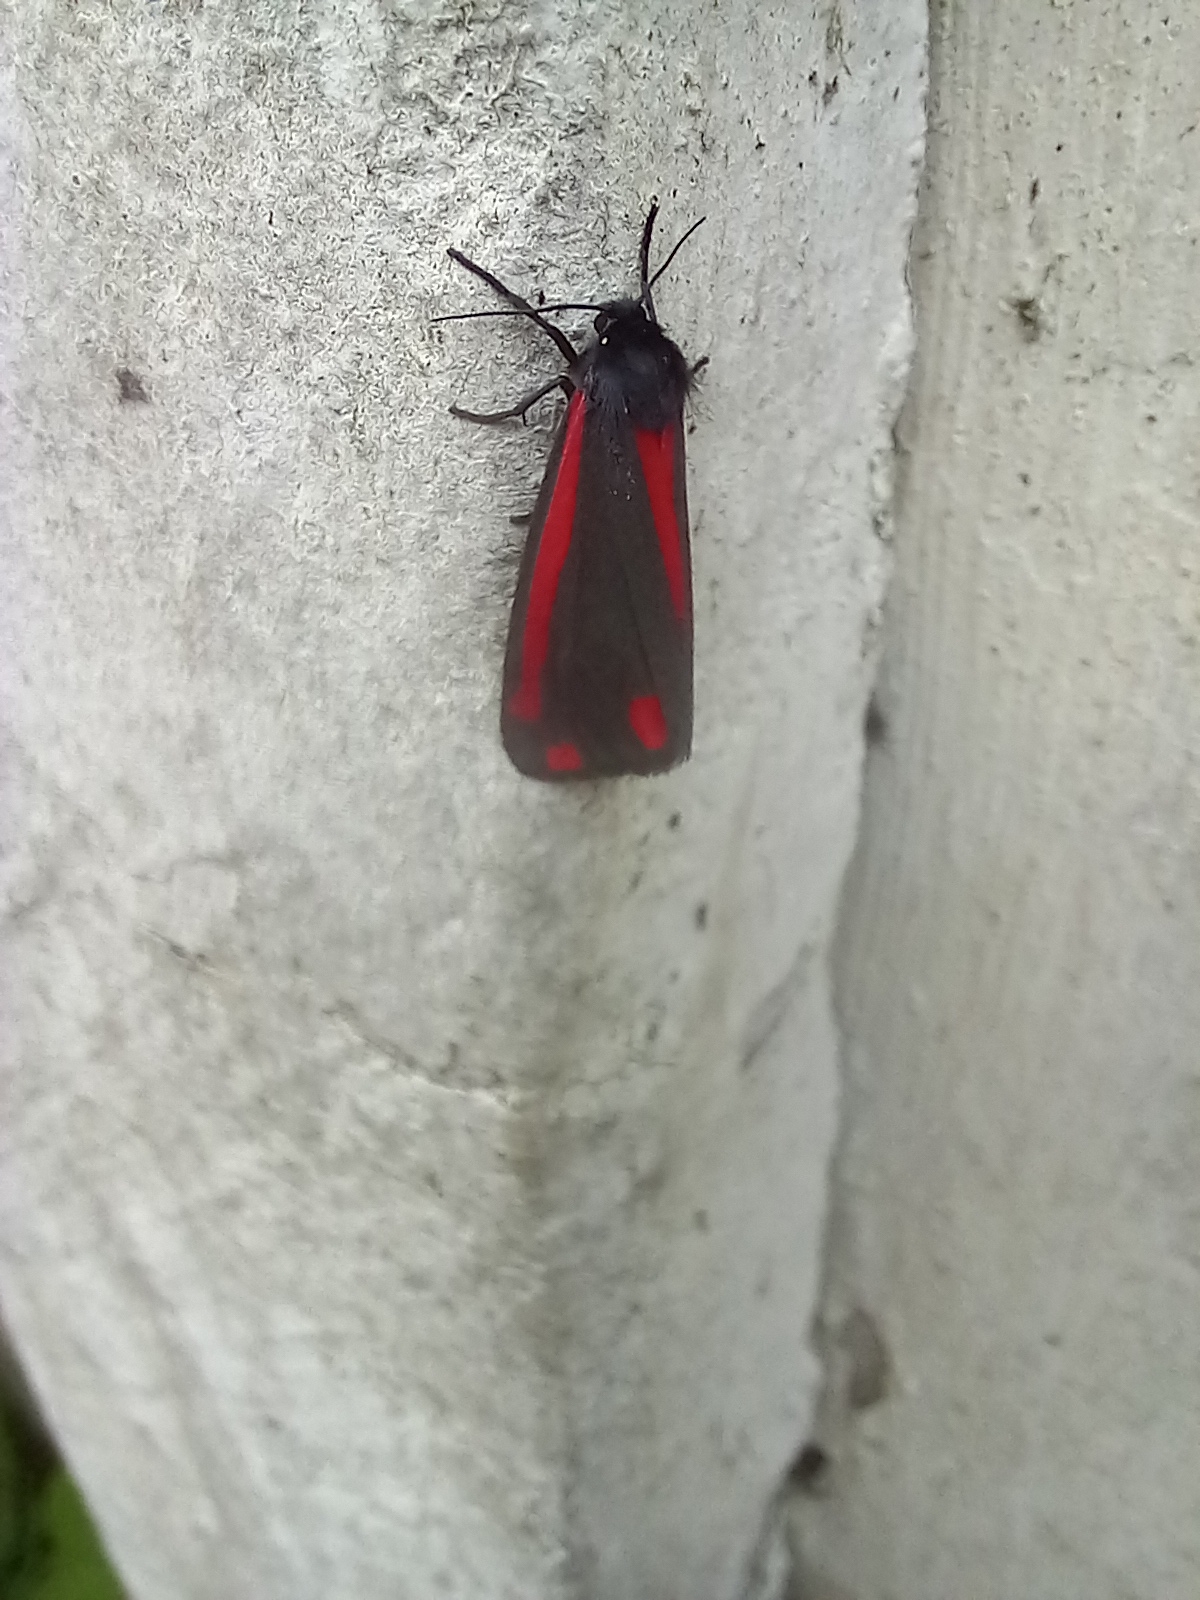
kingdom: Animalia
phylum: Arthropoda
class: Insecta
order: Lepidoptera
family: Erebidae
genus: Tyria
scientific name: Tyria jacobaeae
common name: Cinnabar
